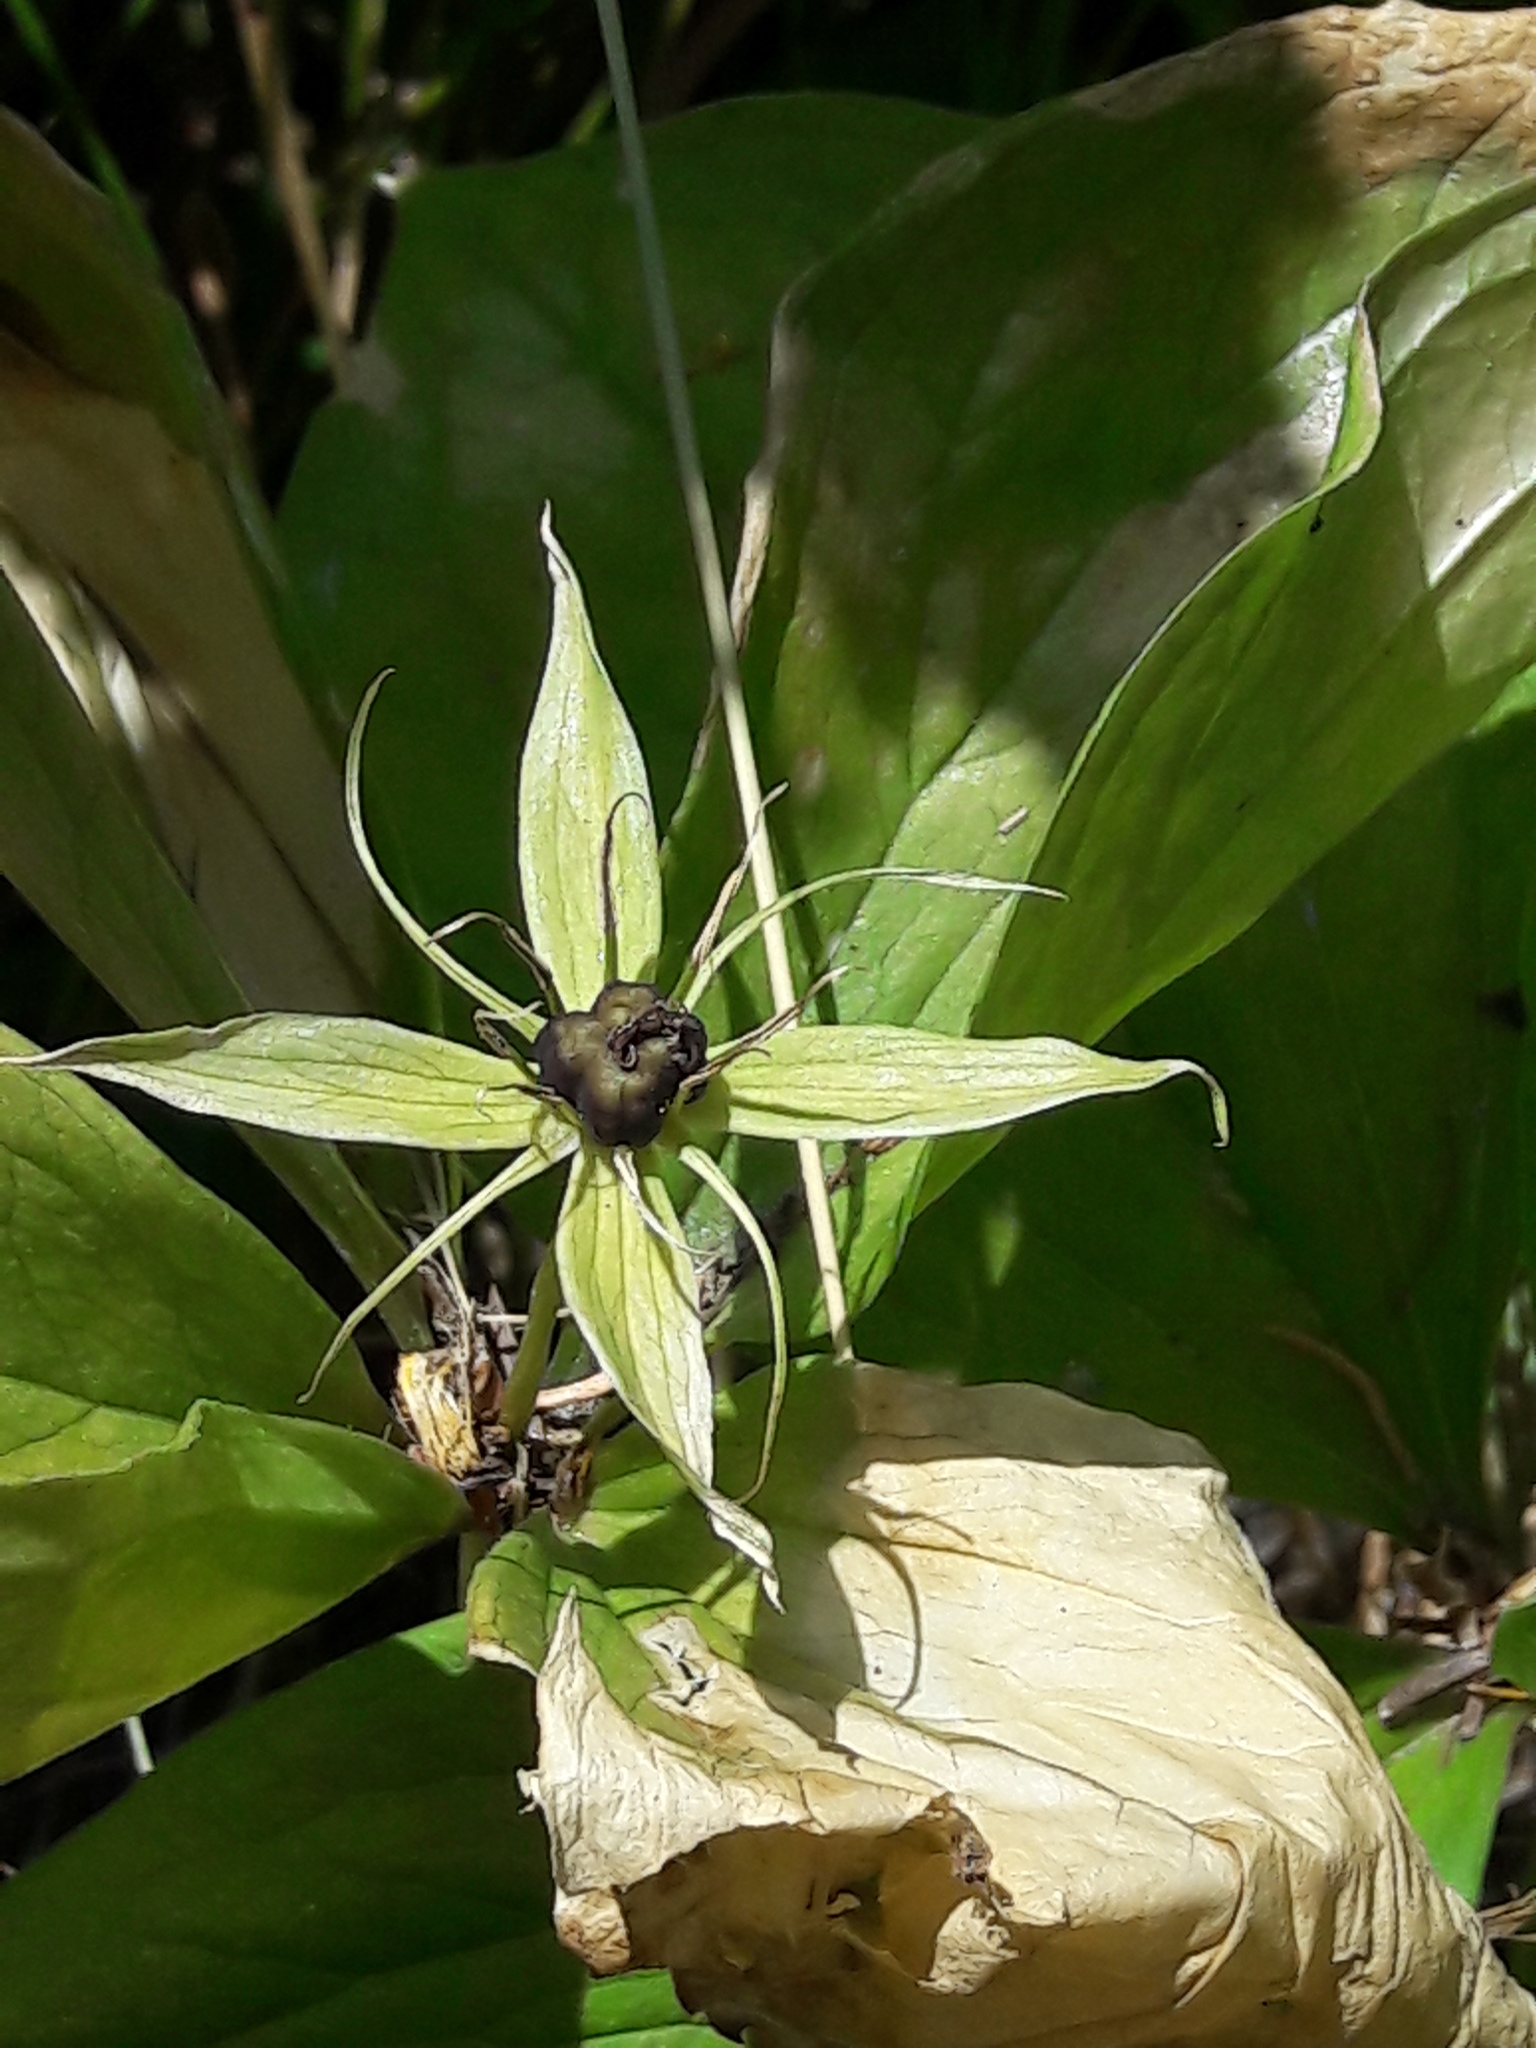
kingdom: Plantae
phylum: Tracheophyta
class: Liliopsida
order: Liliales
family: Melanthiaceae
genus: Paris
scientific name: Paris quadrifolia
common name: Herb-paris
